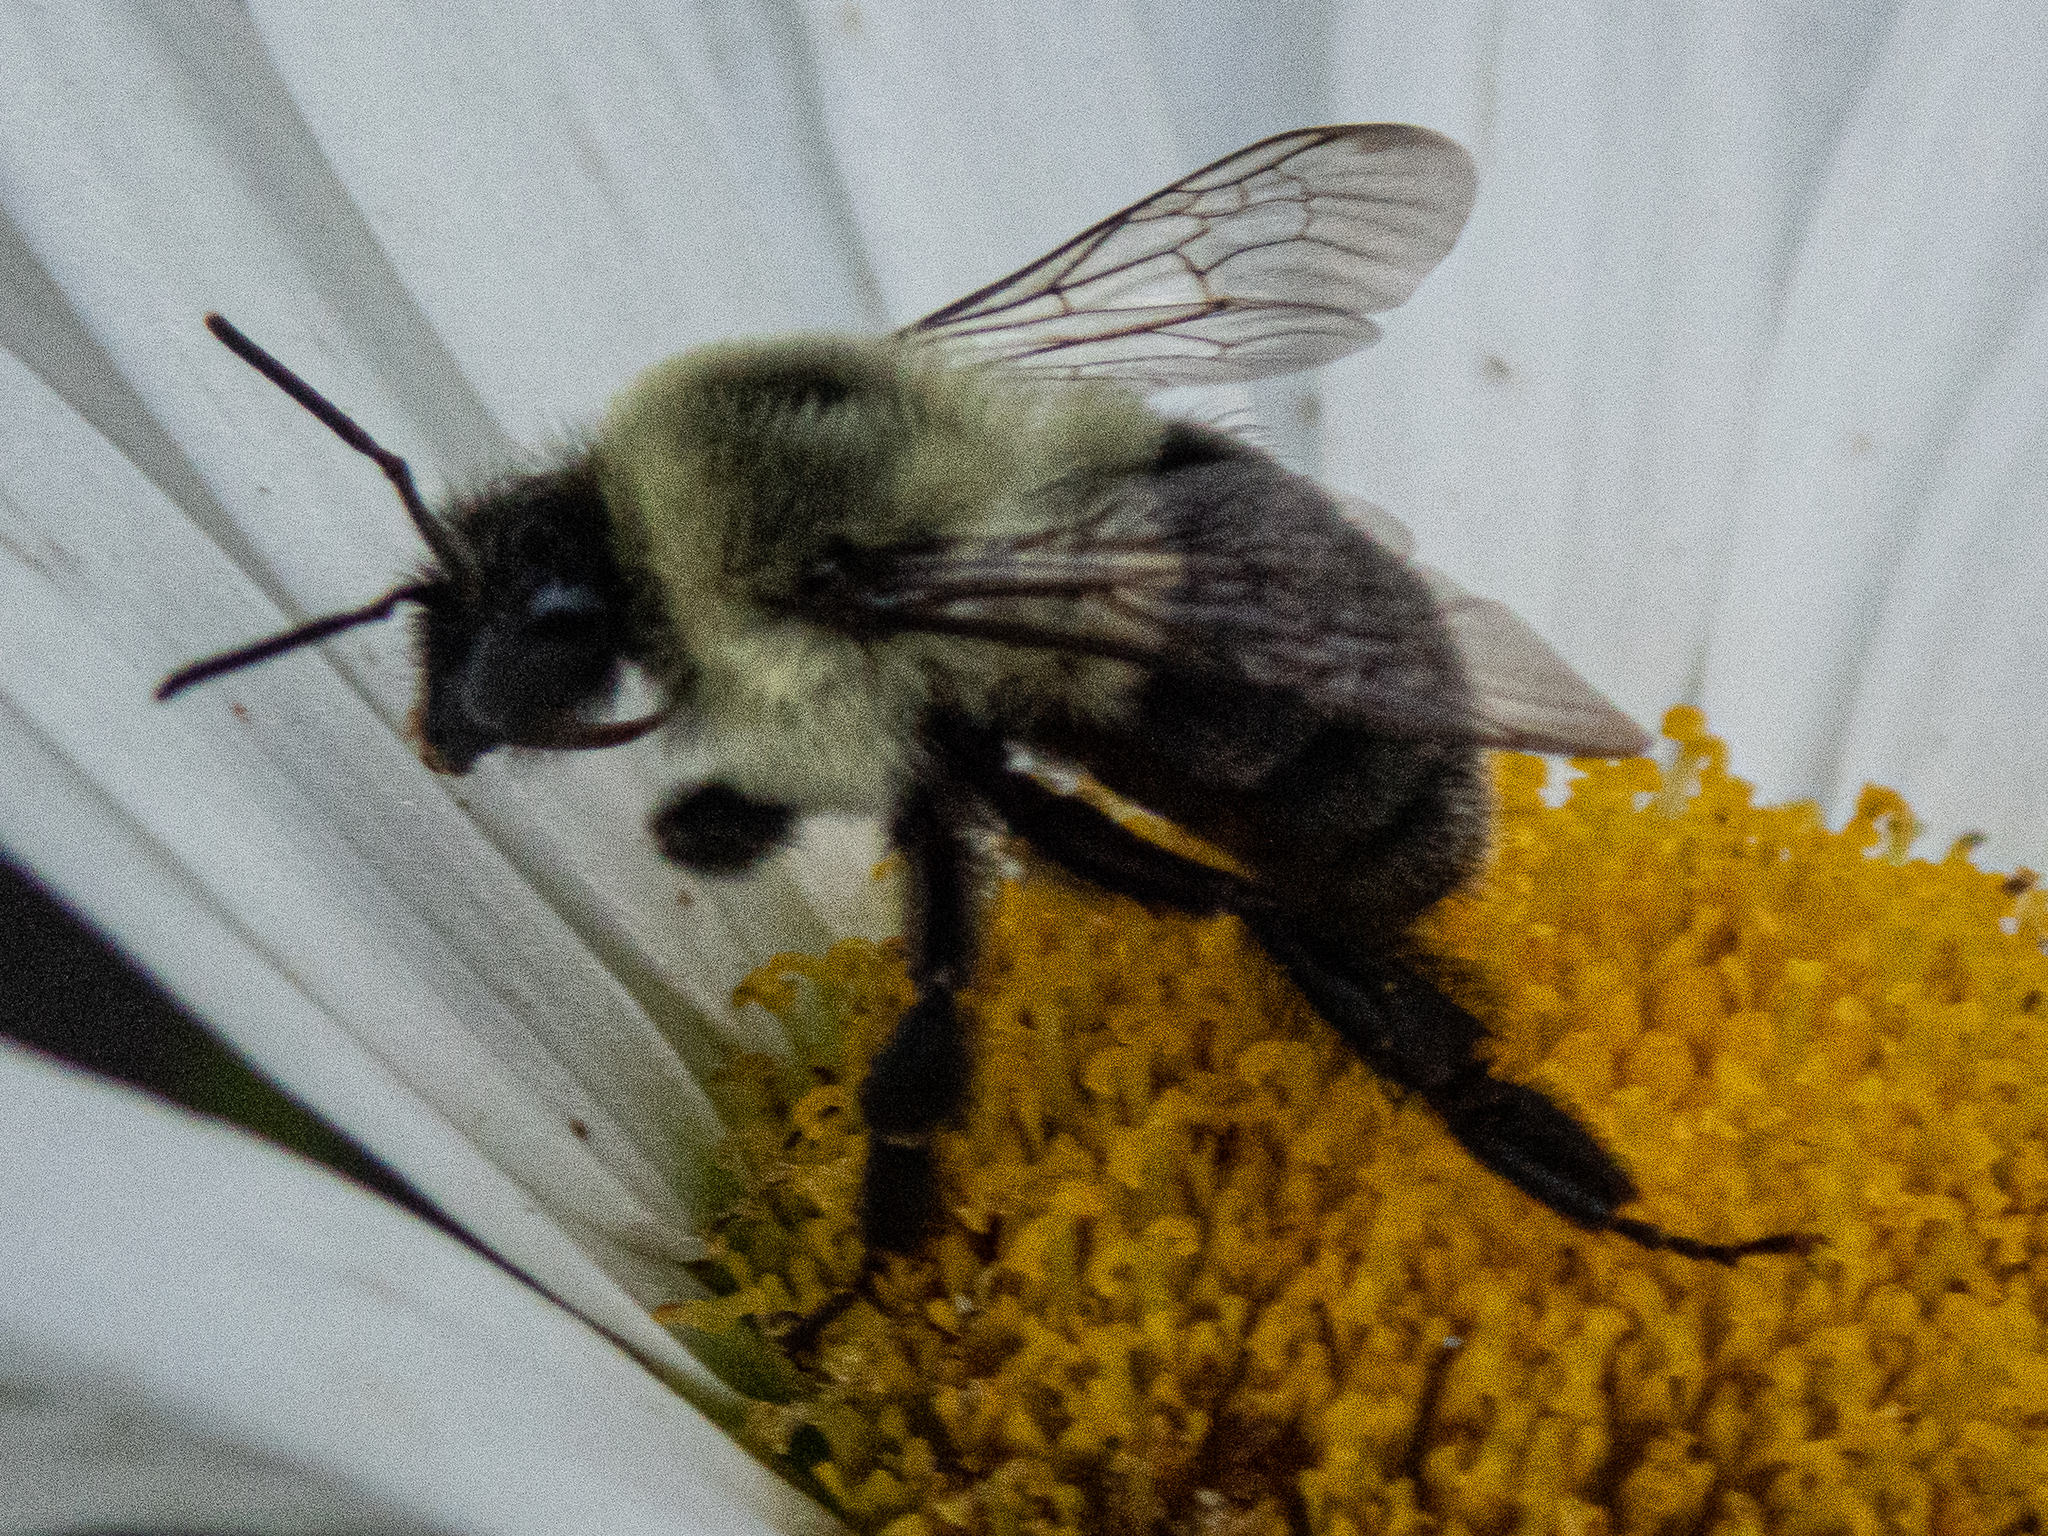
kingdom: Animalia
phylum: Arthropoda
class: Insecta
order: Hymenoptera
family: Apidae
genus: Bombus
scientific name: Bombus impatiens
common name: Common eastern bumble bee
